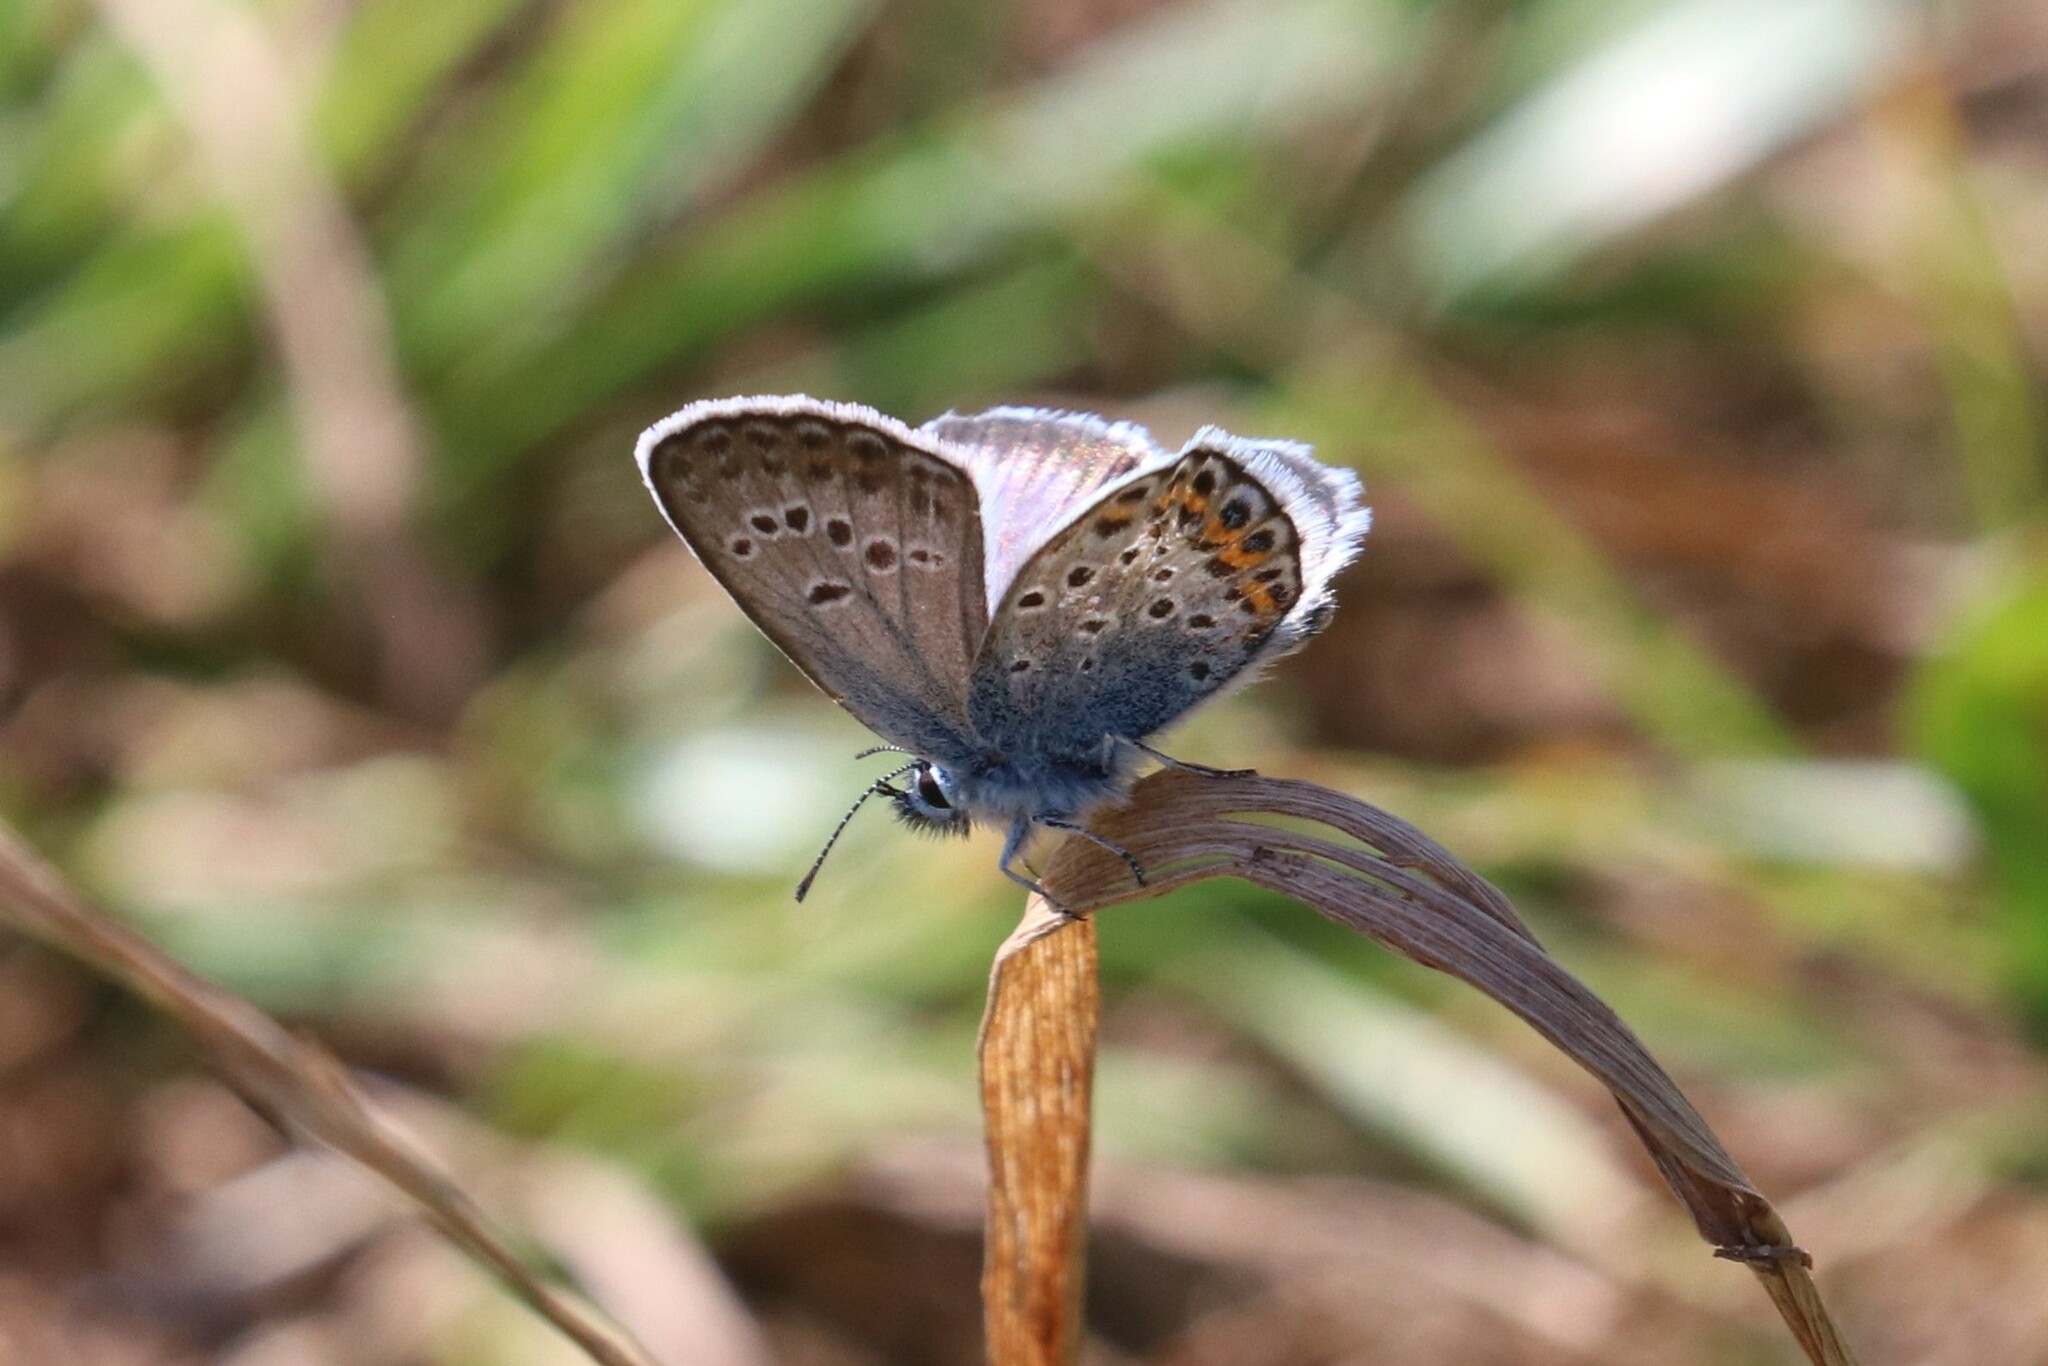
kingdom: Animalia
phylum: Arthropoda
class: Insecta
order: Lepidoptera
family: Lycaenidae
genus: Plebejus
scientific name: Plebejus argus
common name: Silver-studded blue
